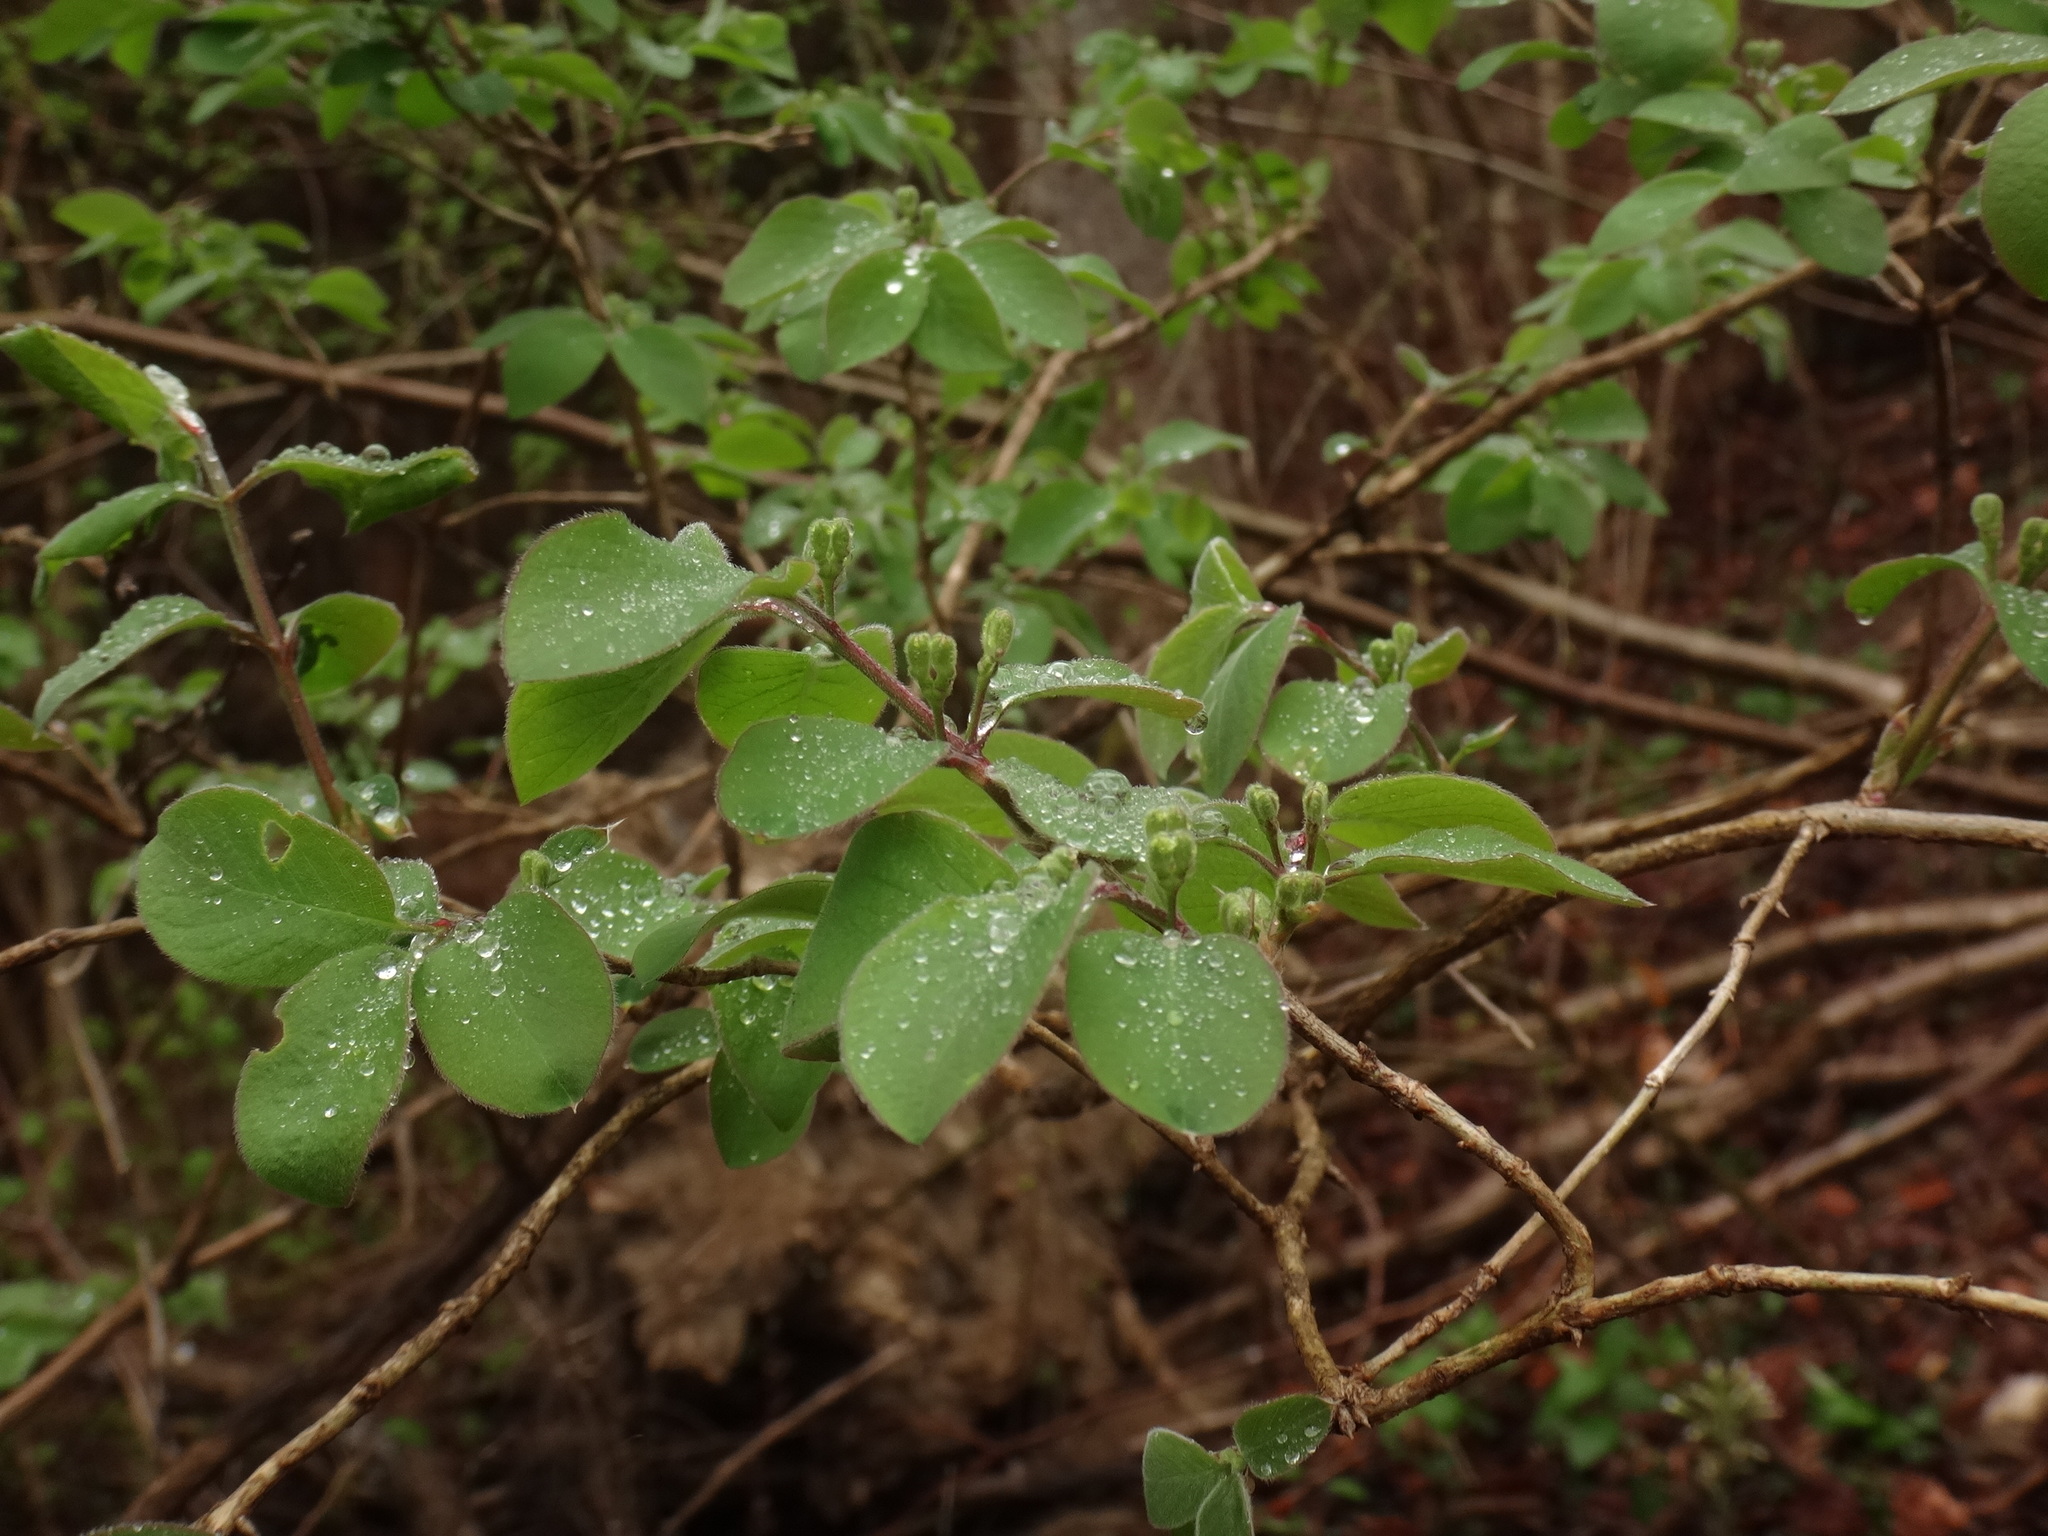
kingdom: Plantae
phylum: Tracheophyta
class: Magnoliopsida
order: Dipsacales
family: Caprifoliaceae
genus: Lonicera
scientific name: Lonicera xylosteum
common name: Fly honeysuckle
